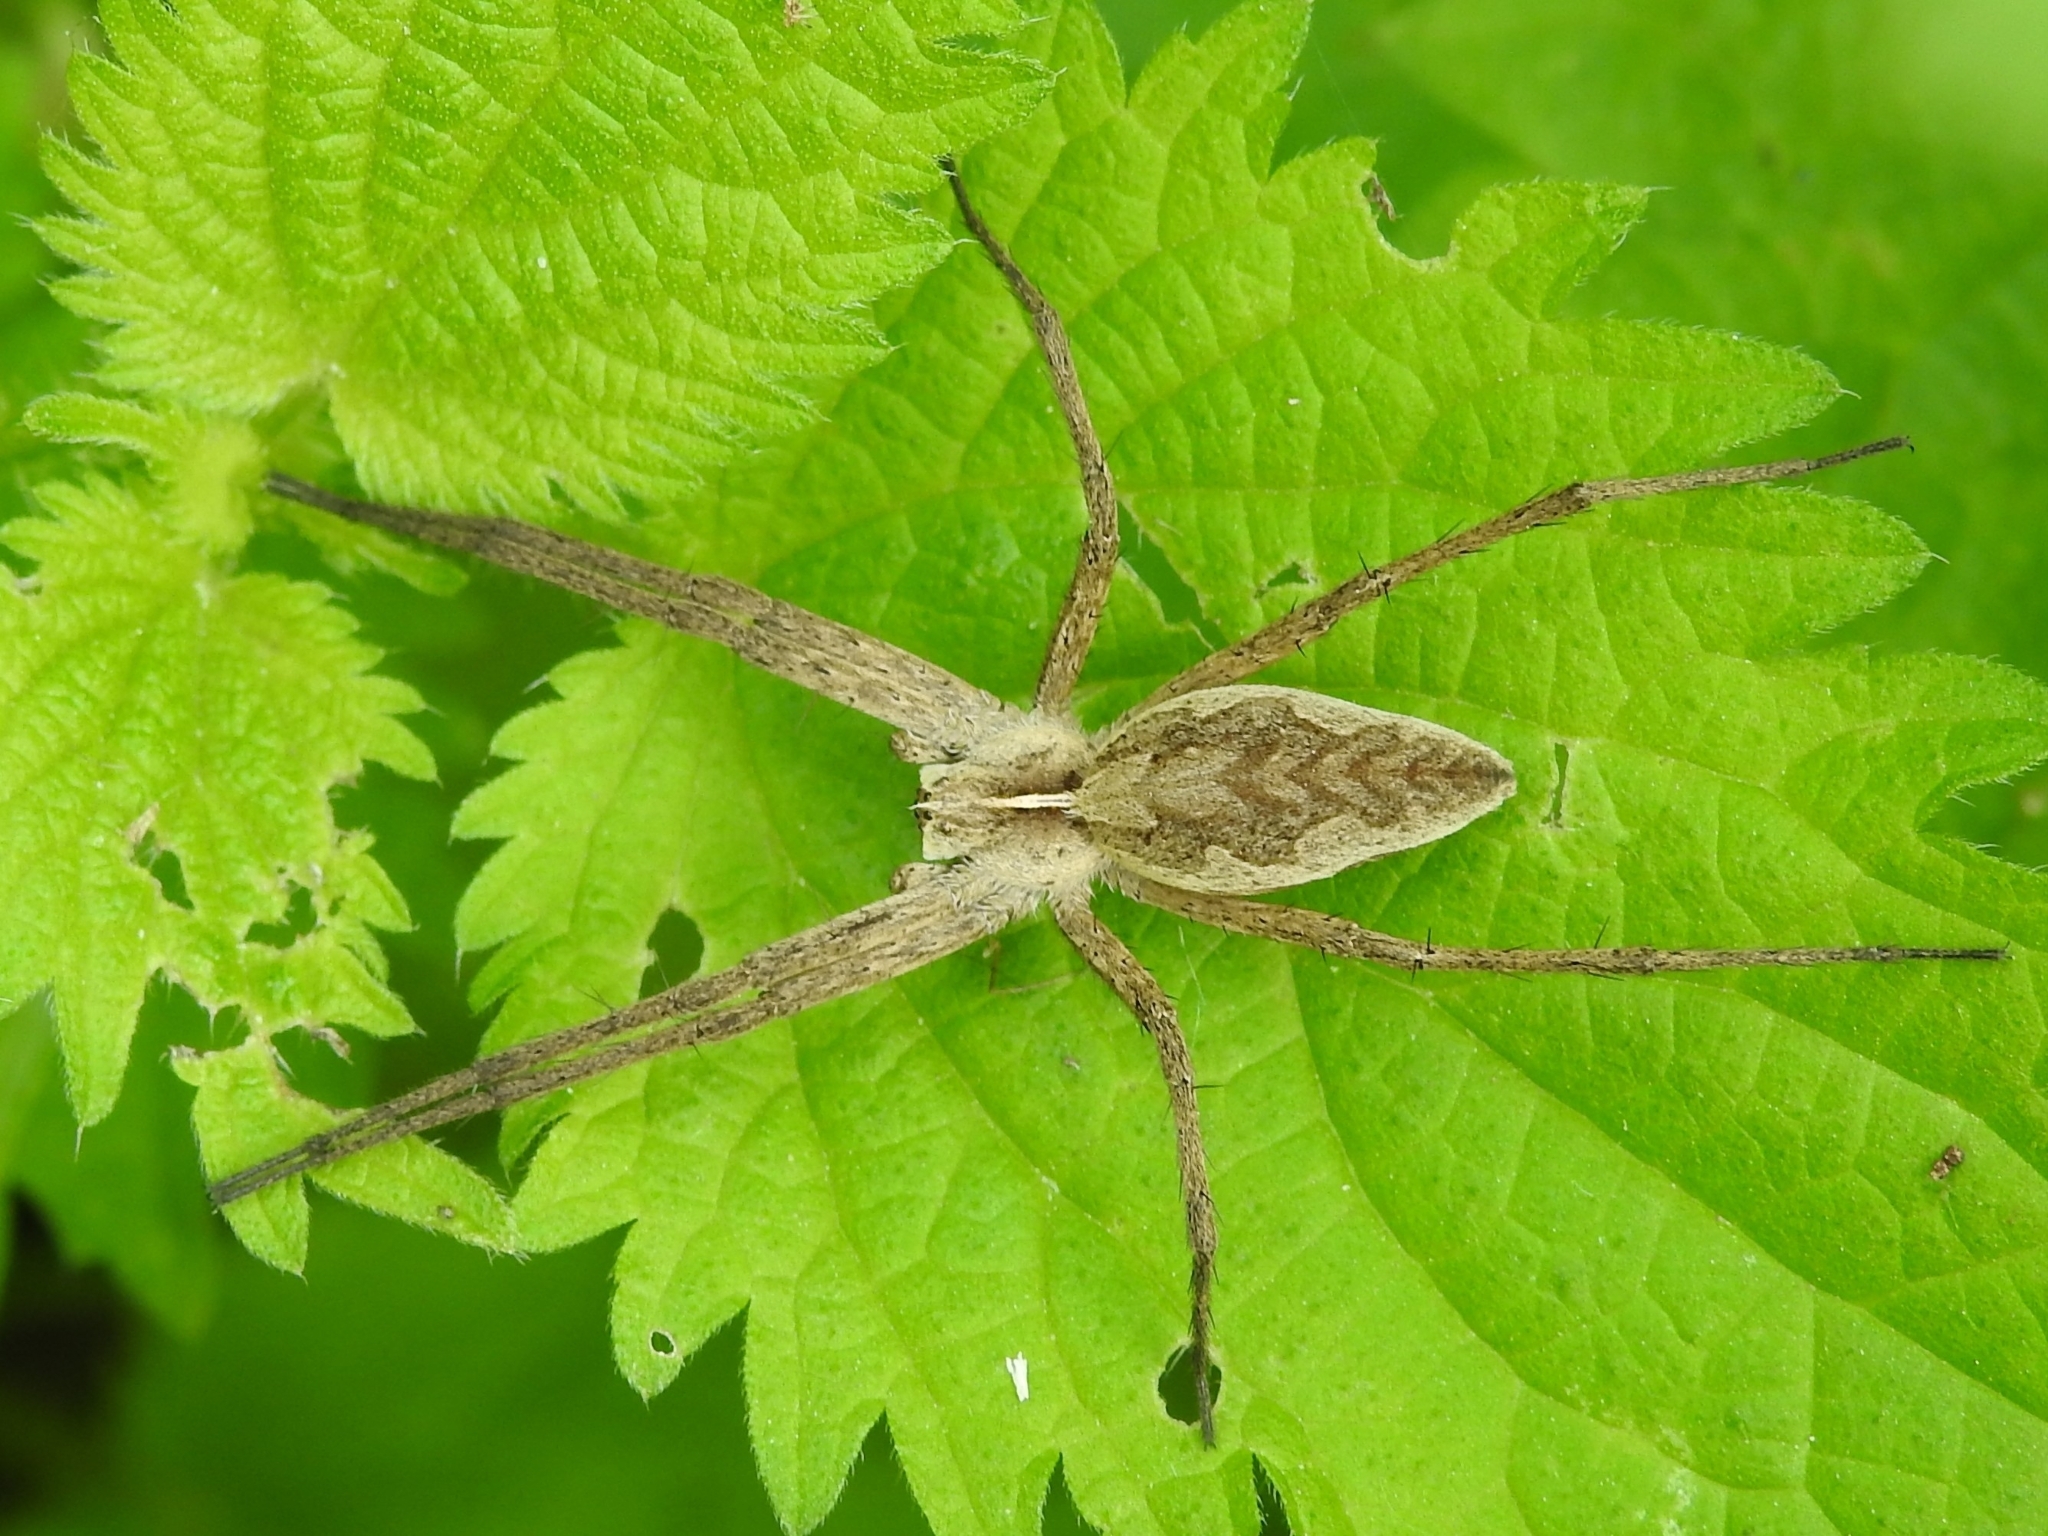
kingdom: Animalia
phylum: Arthropoda
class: Arachnida
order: Araneae
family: Pisauridae
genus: Pisaura
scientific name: Pisaura mirabilis
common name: Tent spider
